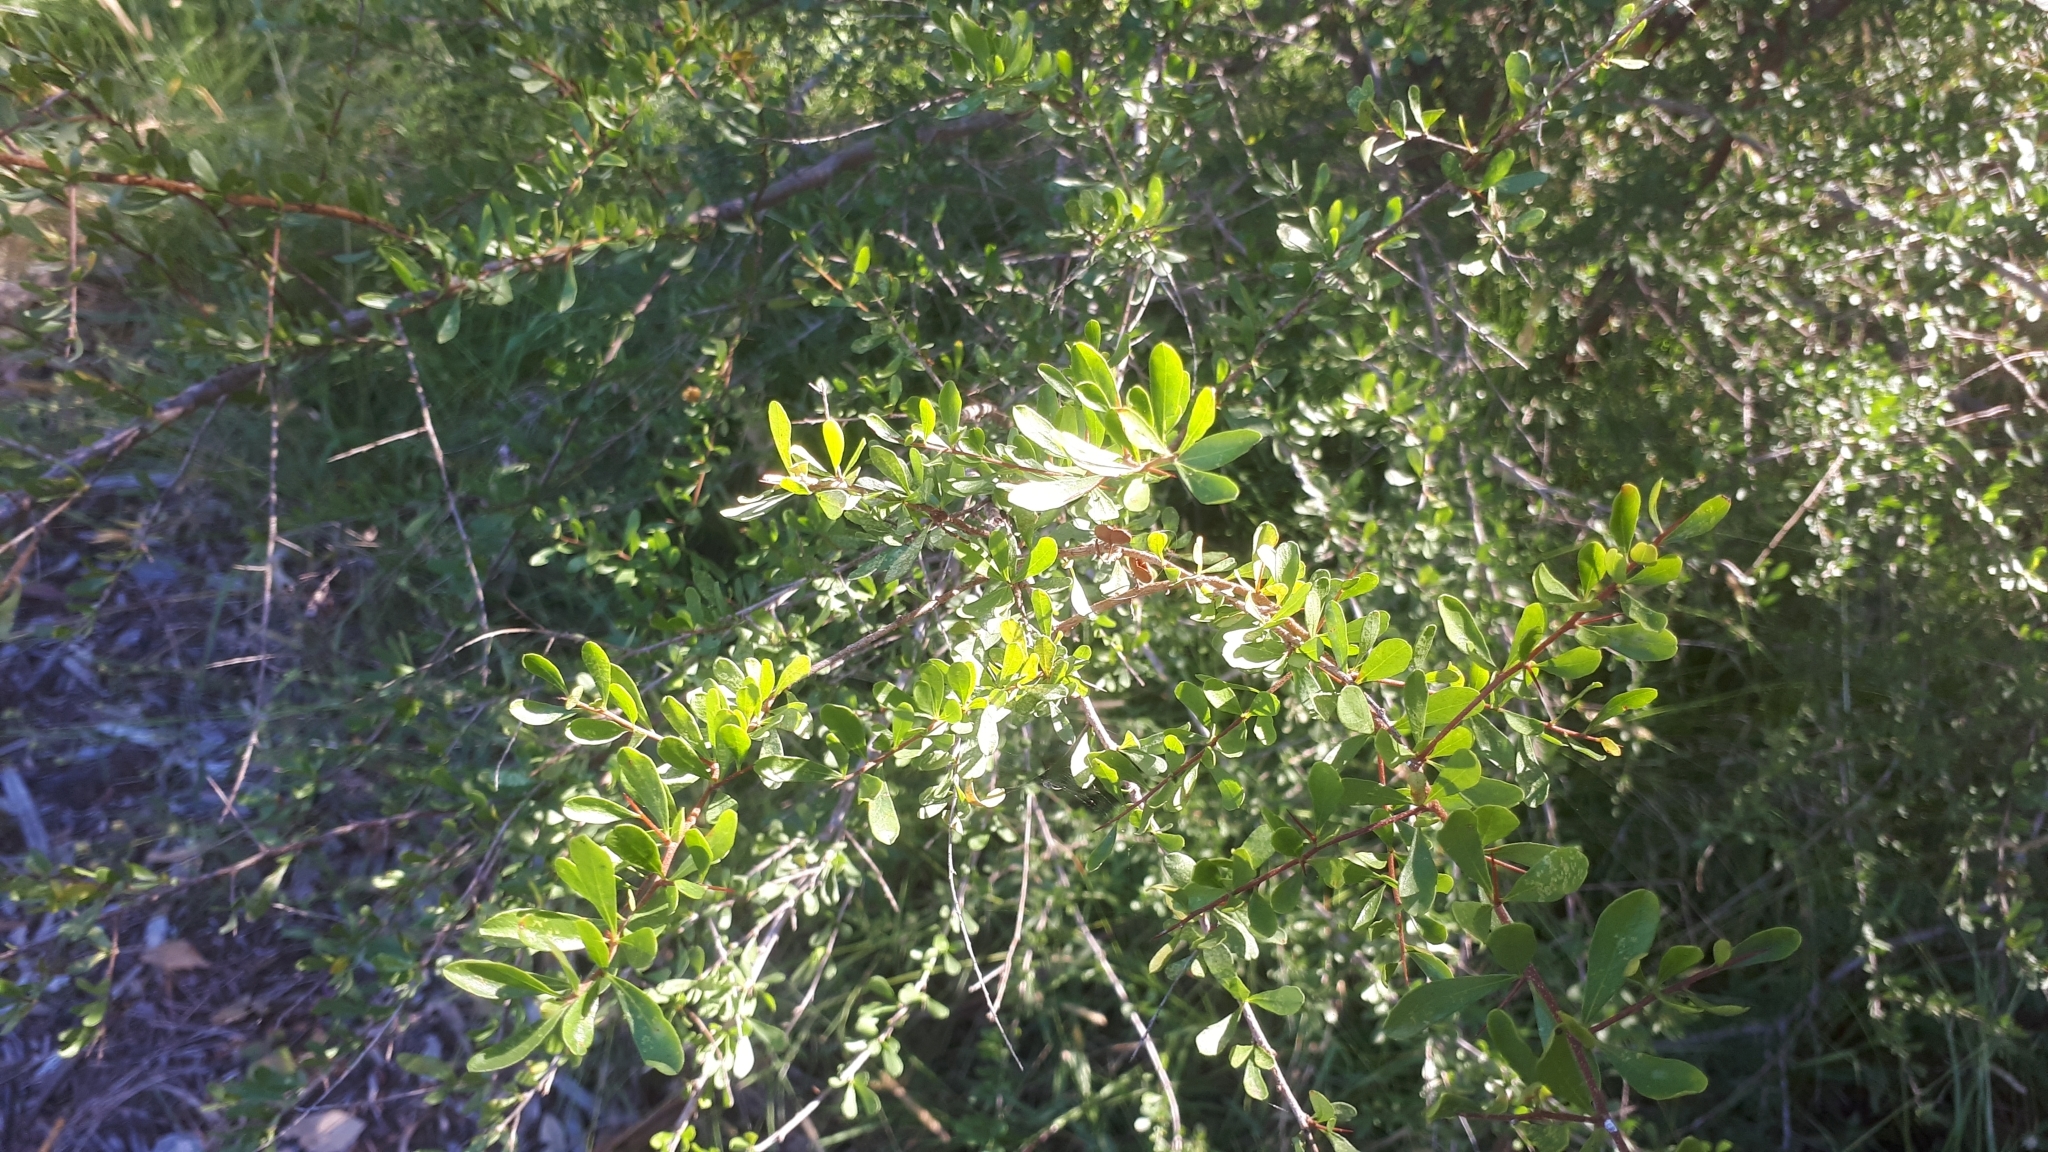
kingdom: Plantae
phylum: Tracheophyta
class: Magnoliopsida
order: Apiales
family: Pittosporaceae
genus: Bursaria
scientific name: Bursaria spinosa
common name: Australian blackthorn
